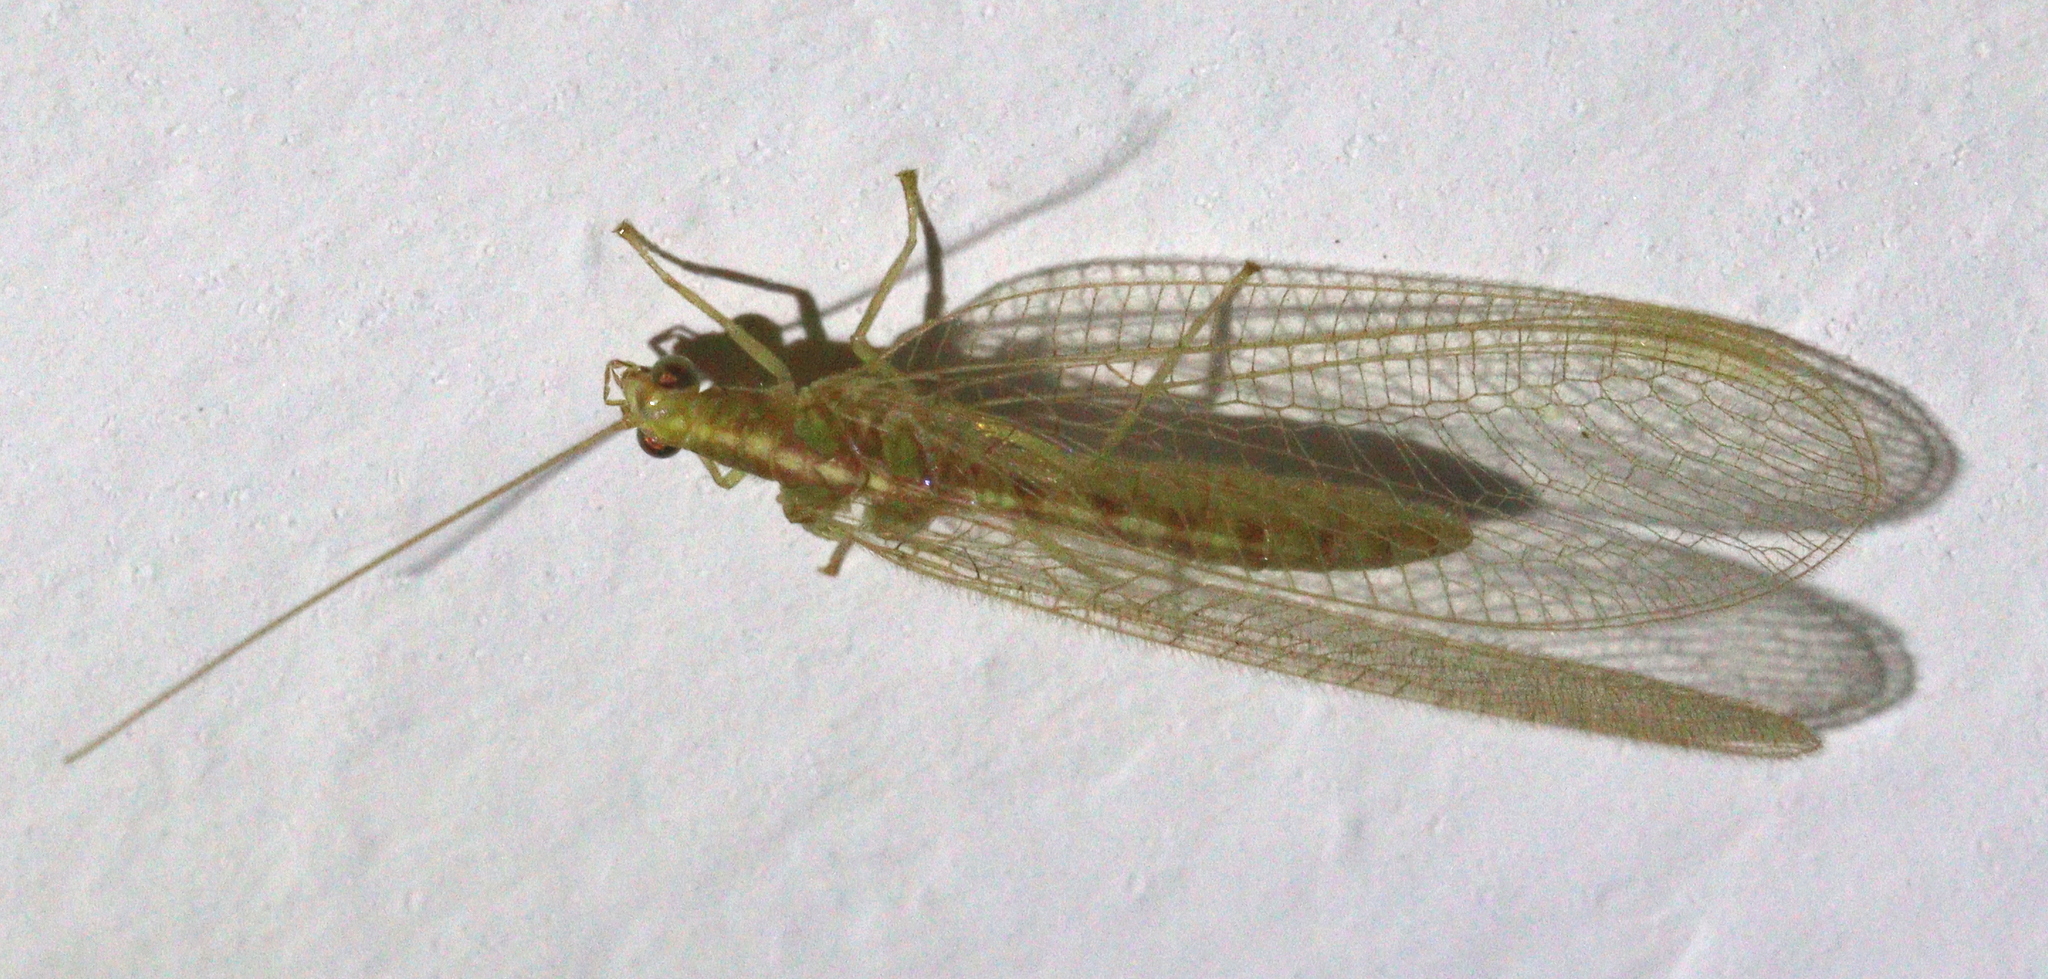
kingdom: Animalia
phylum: Arthropoda
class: Insecta
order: Neuroptera
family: Chrysopidae
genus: Chrysoperla
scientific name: Chrysoperla
